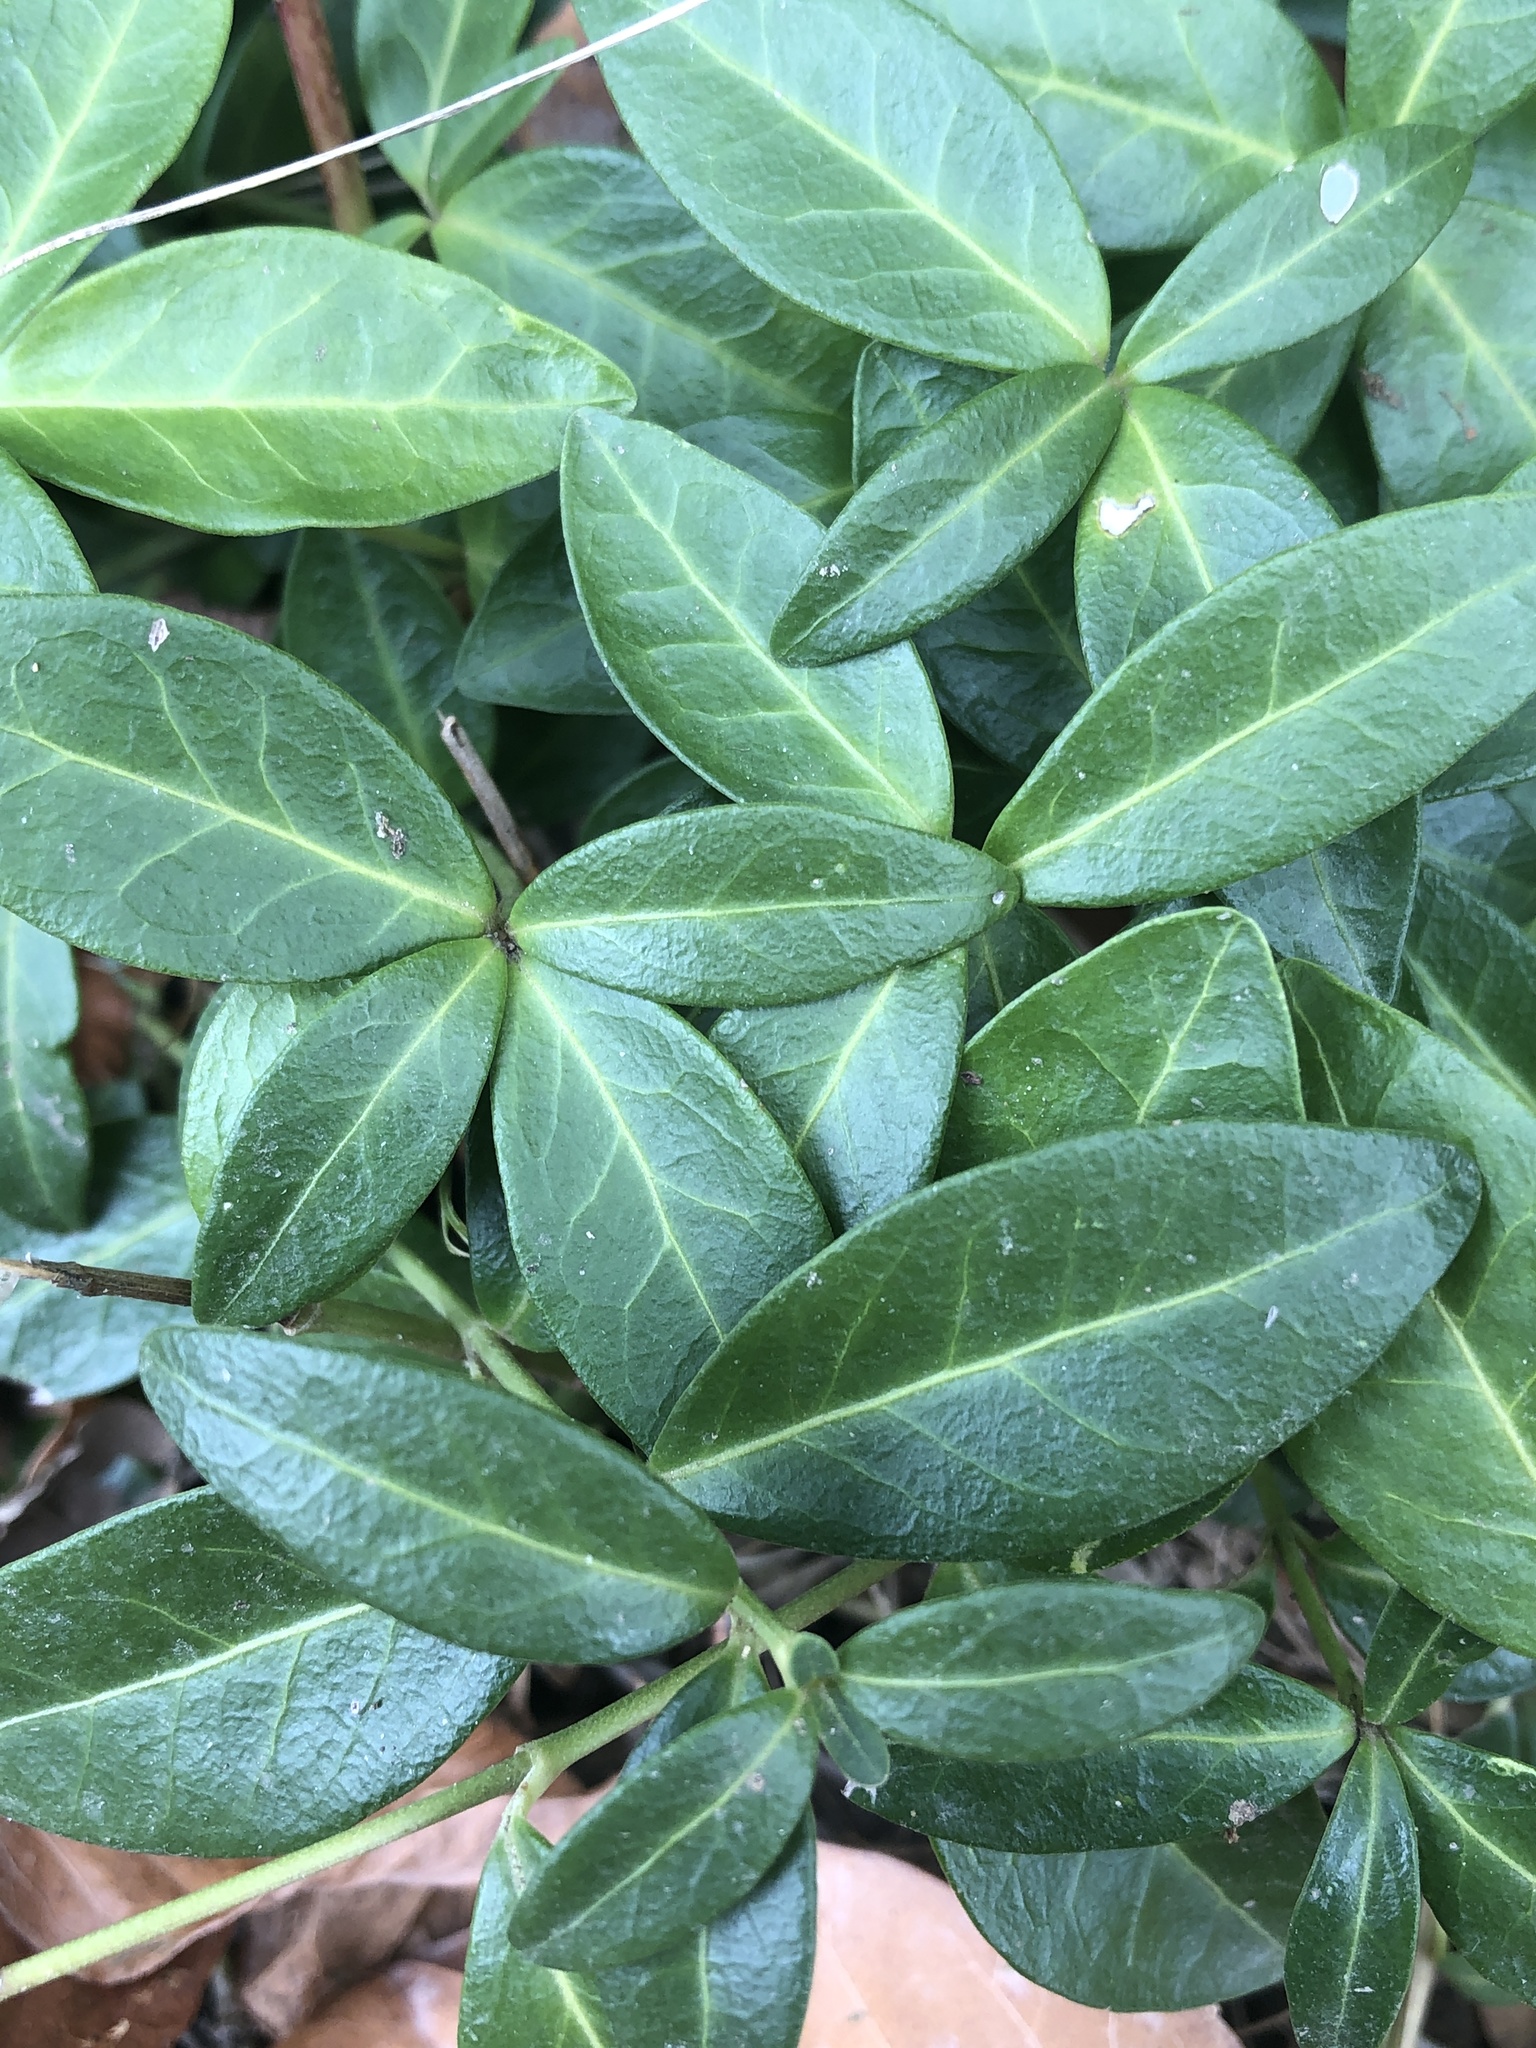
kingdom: Plantae
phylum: Tracheophyta
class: Magnoliopsida
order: Gentianales
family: Apocynaceae
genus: Vinca
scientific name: Vinca minor
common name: Lesser periwinkle
